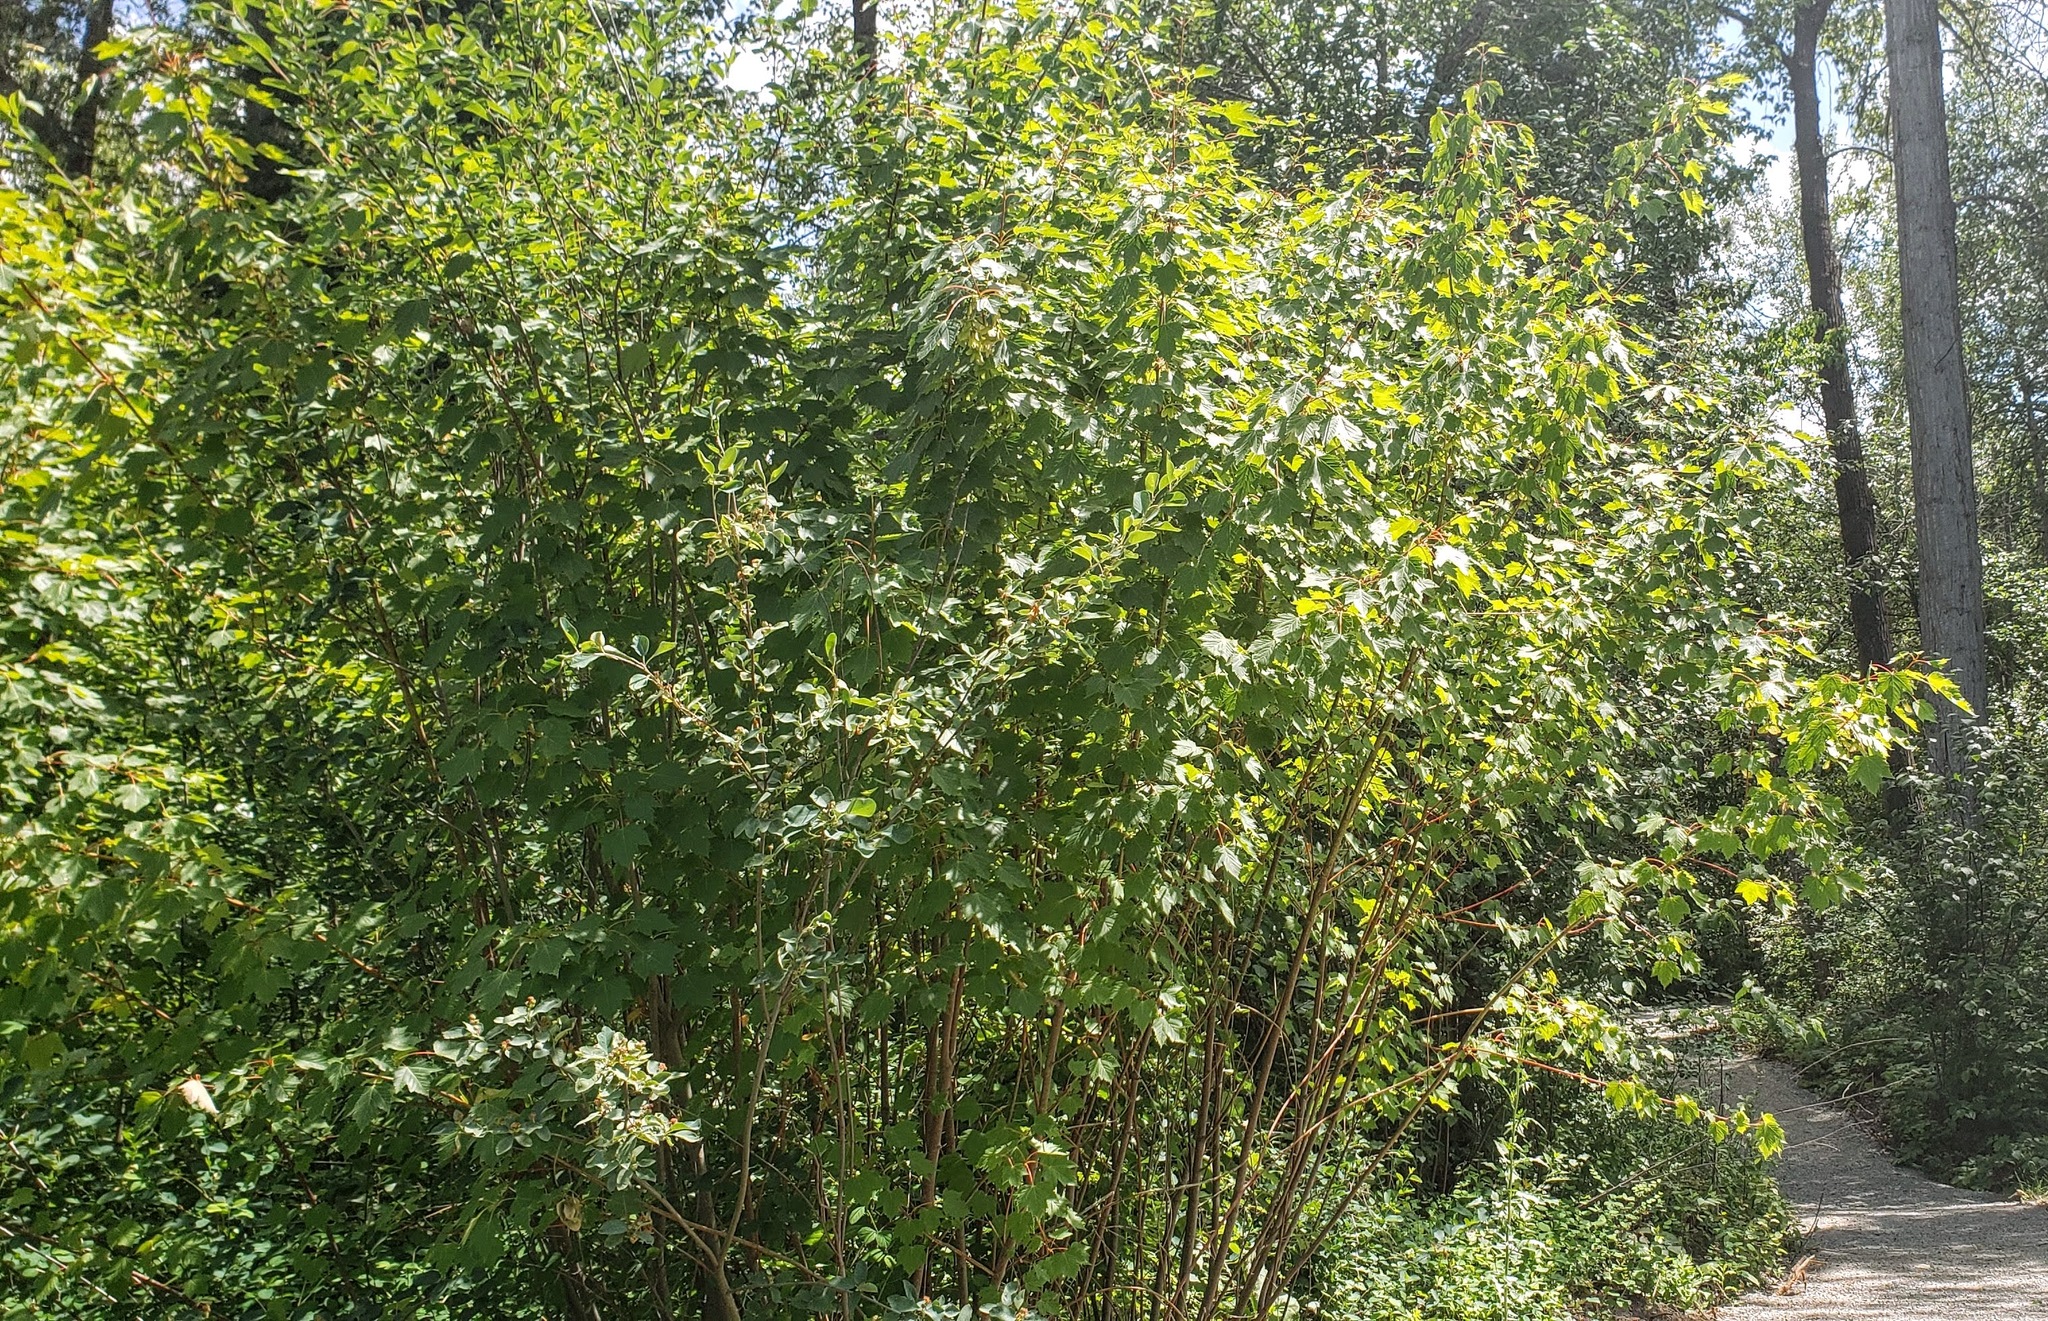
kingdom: Plantae
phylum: Tracheophyta
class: Magnoliopsida
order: Sapindales
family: Sapindaceae
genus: Acer
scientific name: Acer glabrum
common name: Rocky mountain maple
